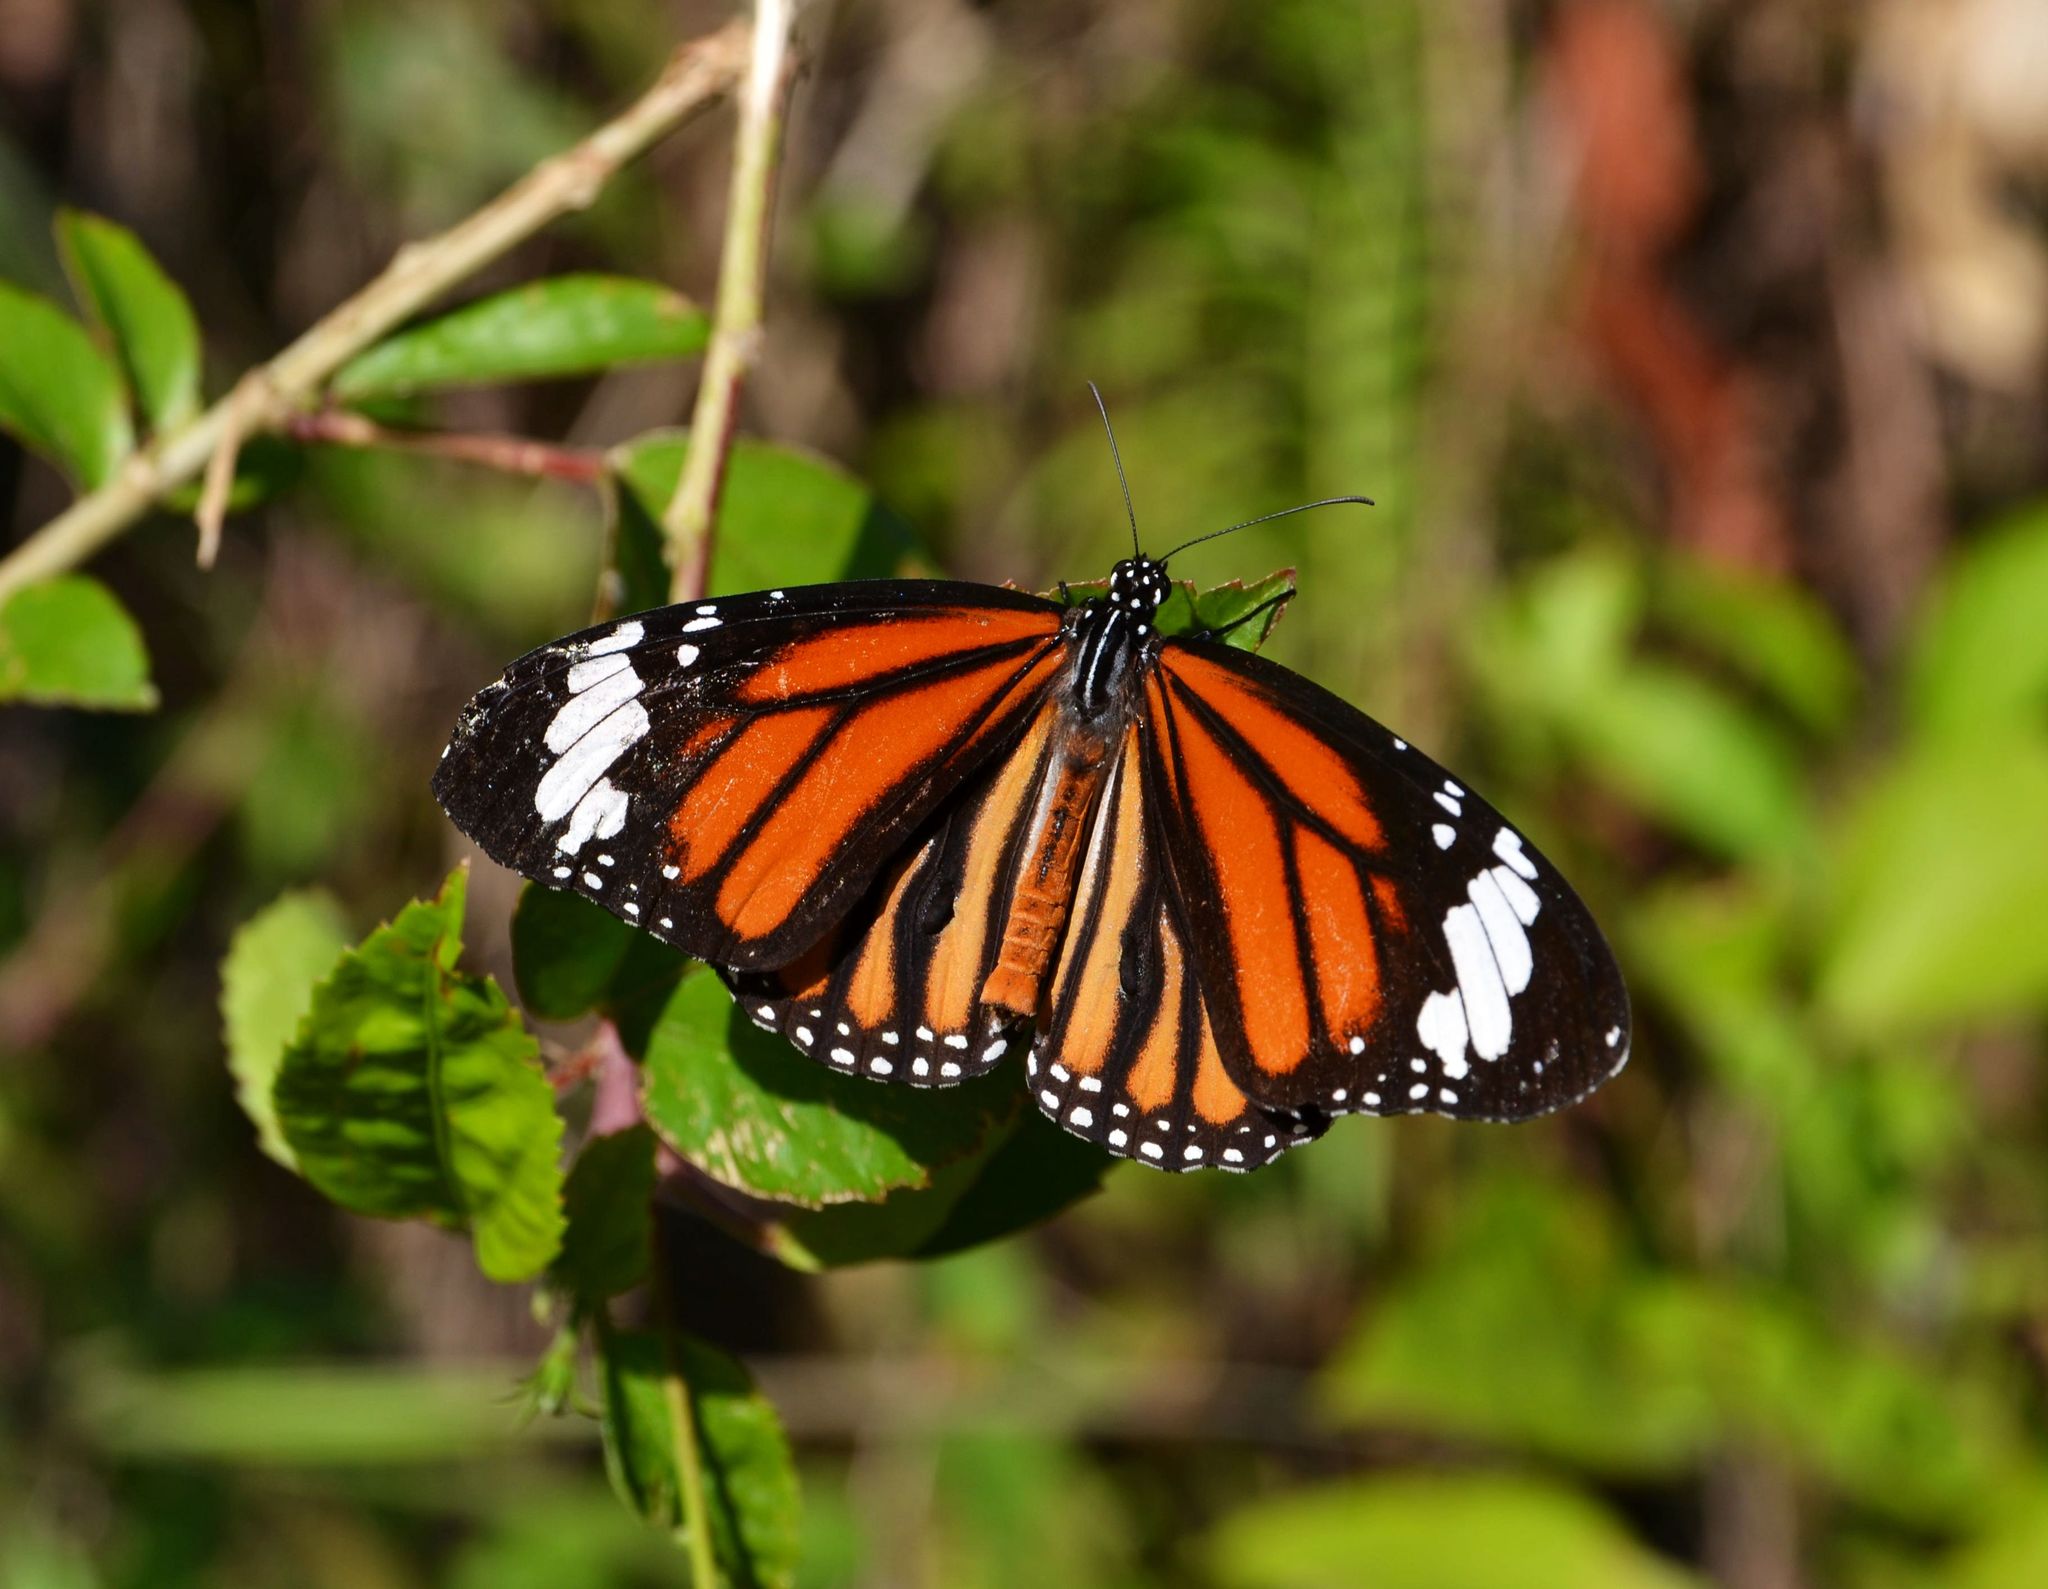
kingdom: Animalia
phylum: Arthropoda
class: Insecta
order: Lepidoptera
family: Nymphalidae
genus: Danaus
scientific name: Danaus genutia
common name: Common tiger butterfly
